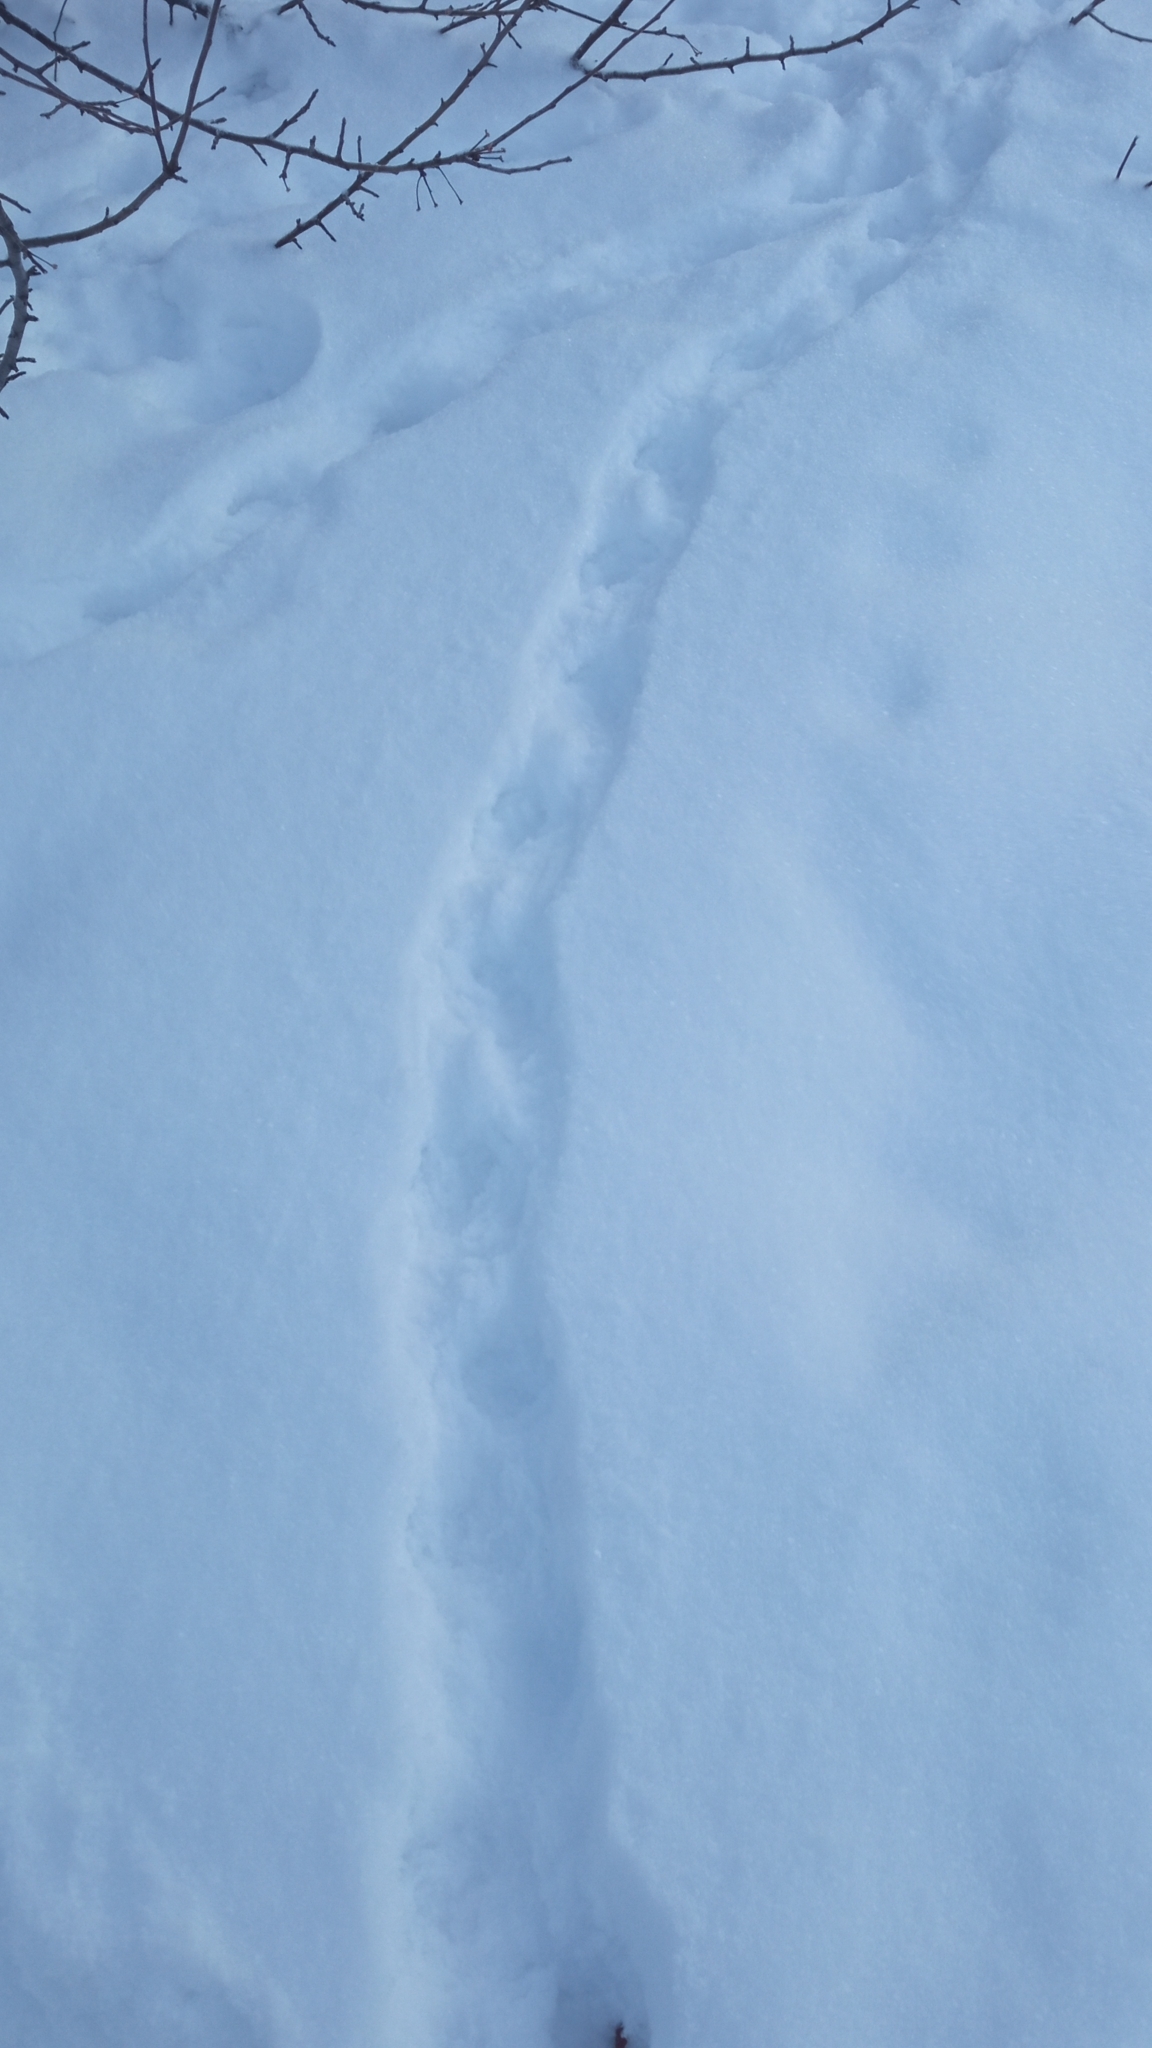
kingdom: Animalia
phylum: Chordata
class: Aves
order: Galliformes
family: Phasianidae
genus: Lagopus
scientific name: Lagopus lagopus
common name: Willow ptarmigan
